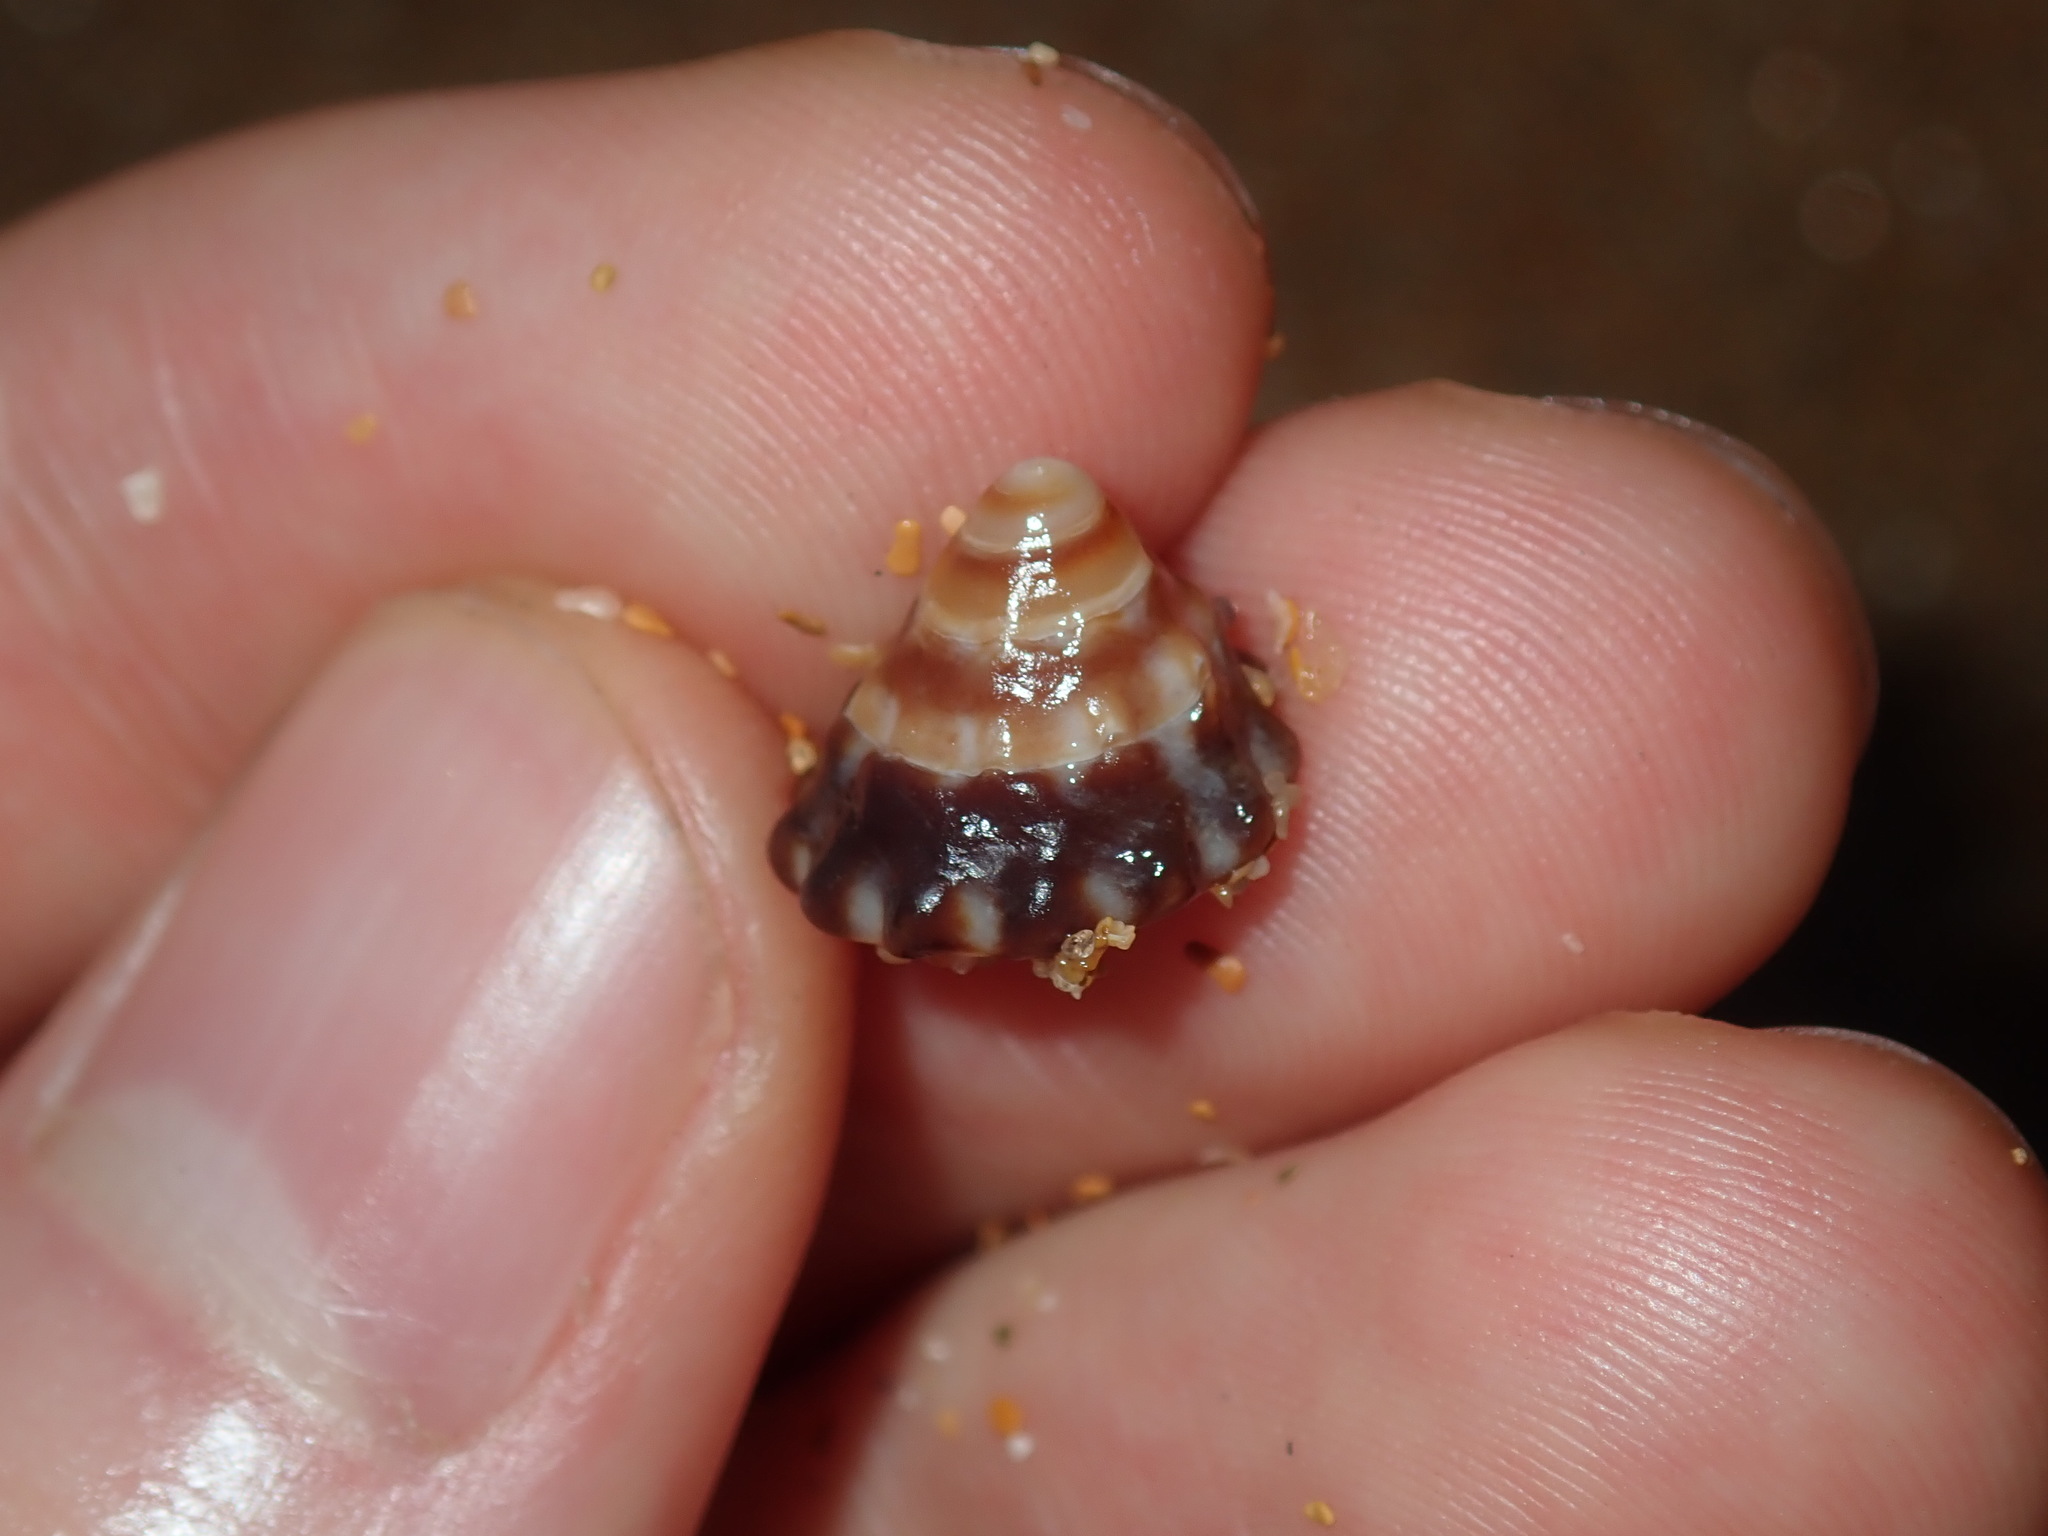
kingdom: Animalia
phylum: Mollusca
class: Gastropoda
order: Littorinimorpha
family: Littorinidae
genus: Bembicium
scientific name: Bembicium auratum
